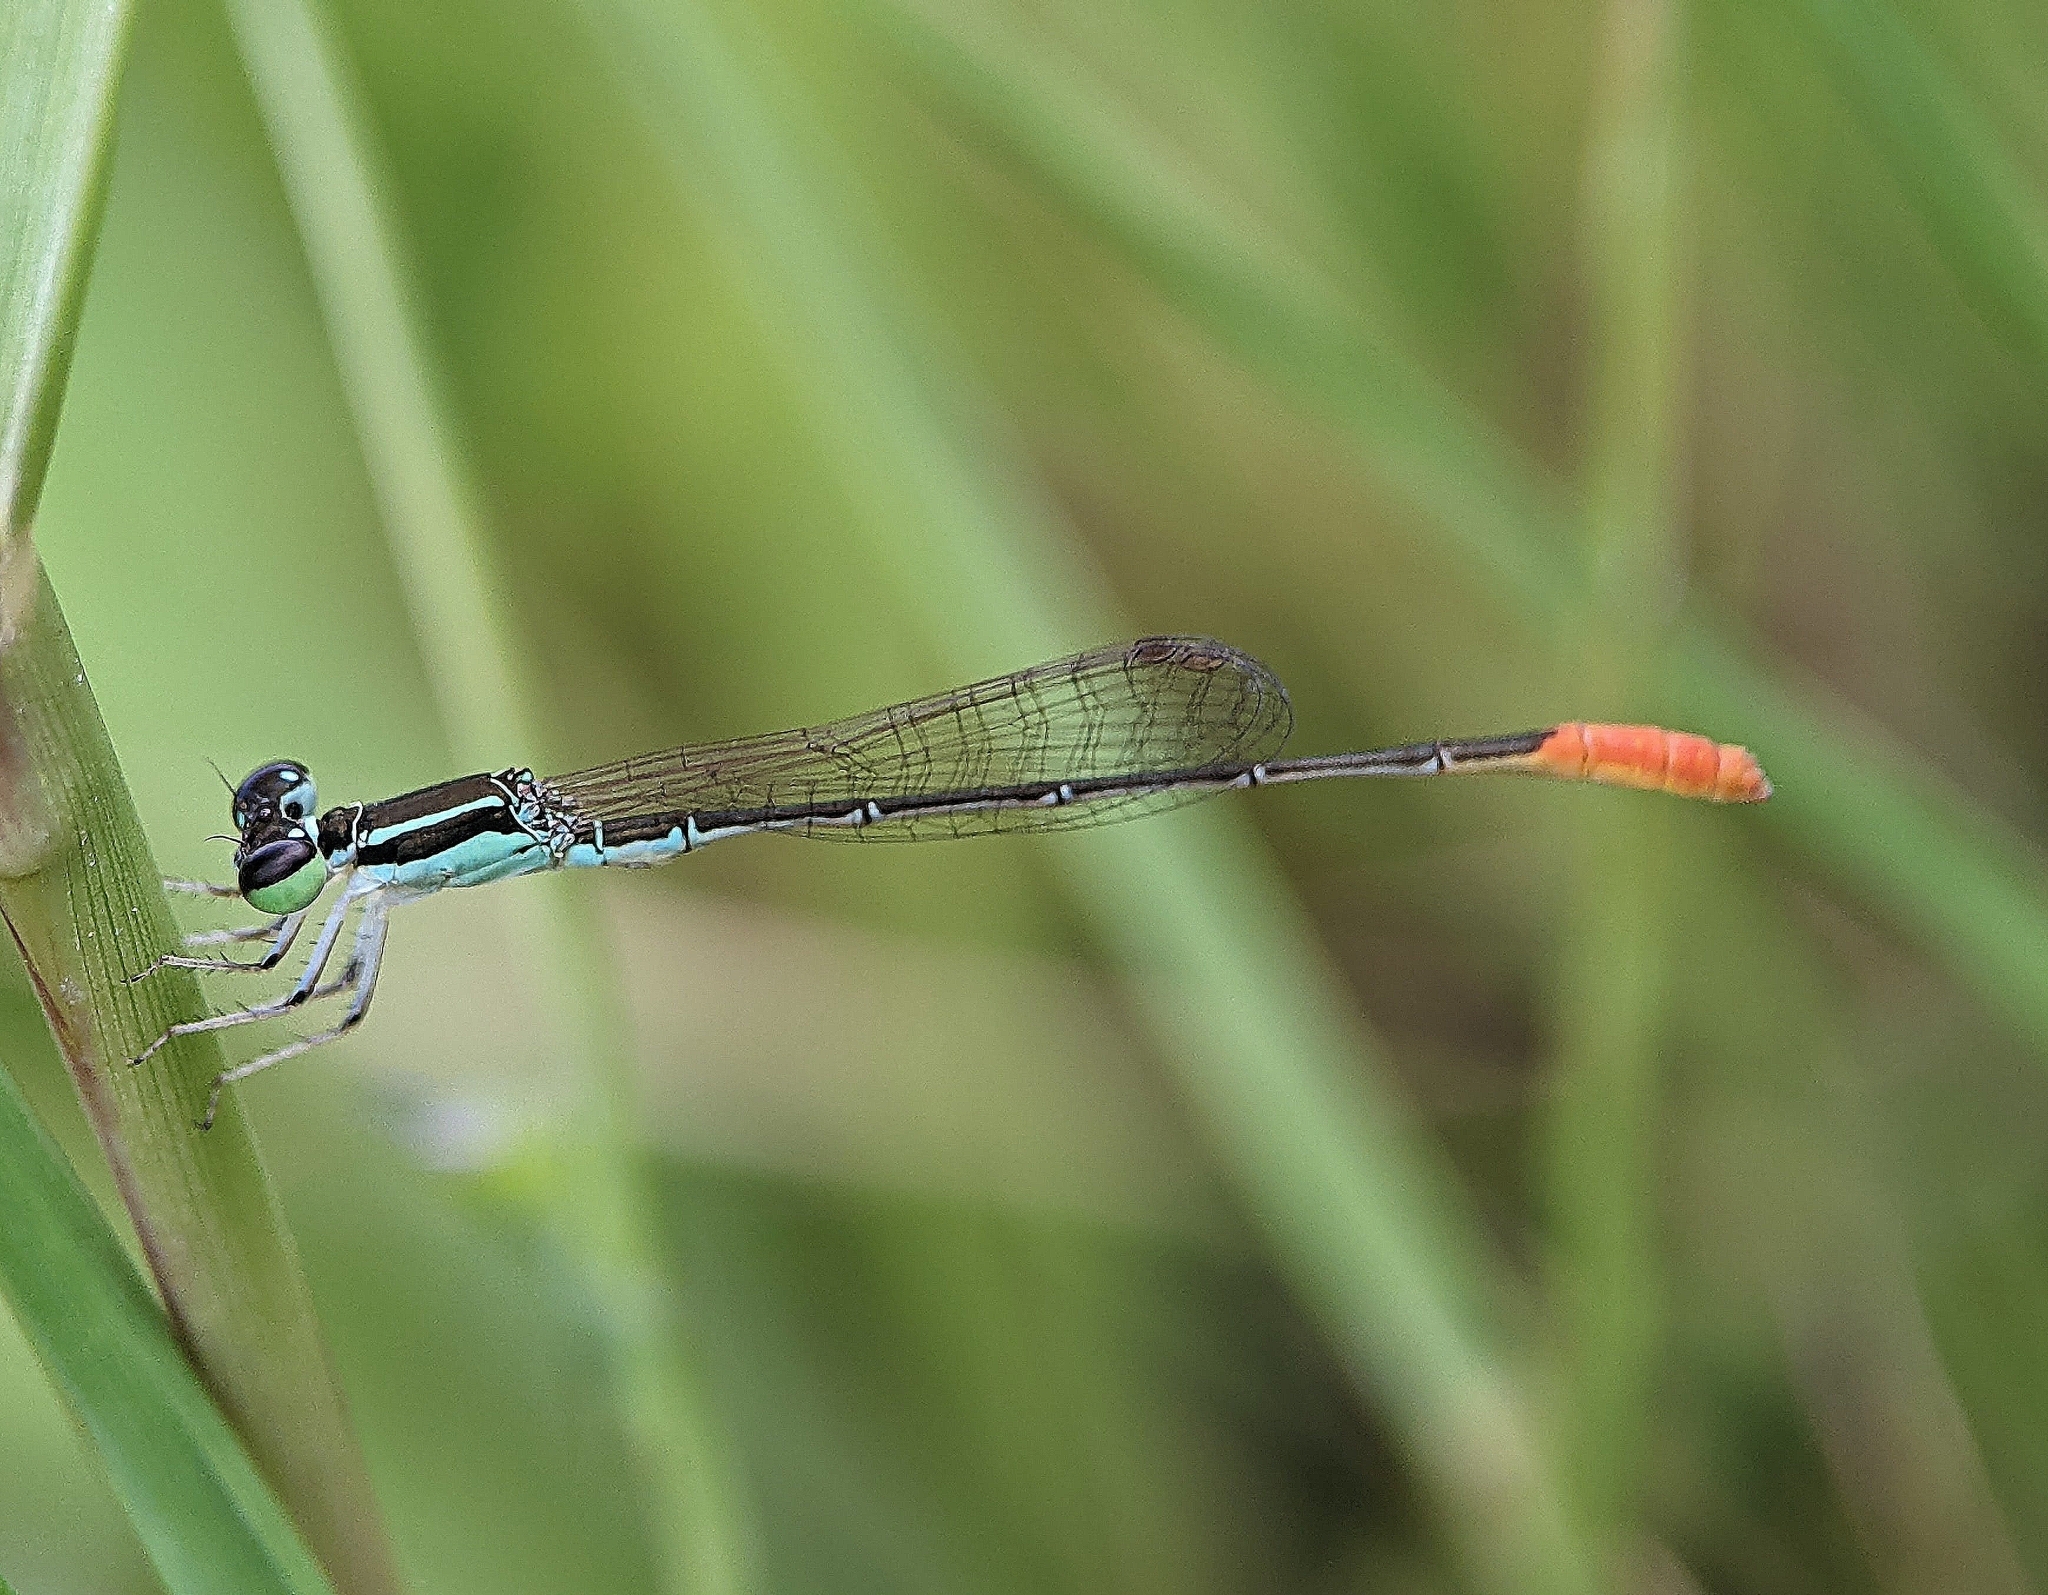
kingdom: Animalia
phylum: Arthropoda
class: Insecta
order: Odonata
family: Coenagrionidae
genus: Agriocnemis
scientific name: Agriocnemis femina
